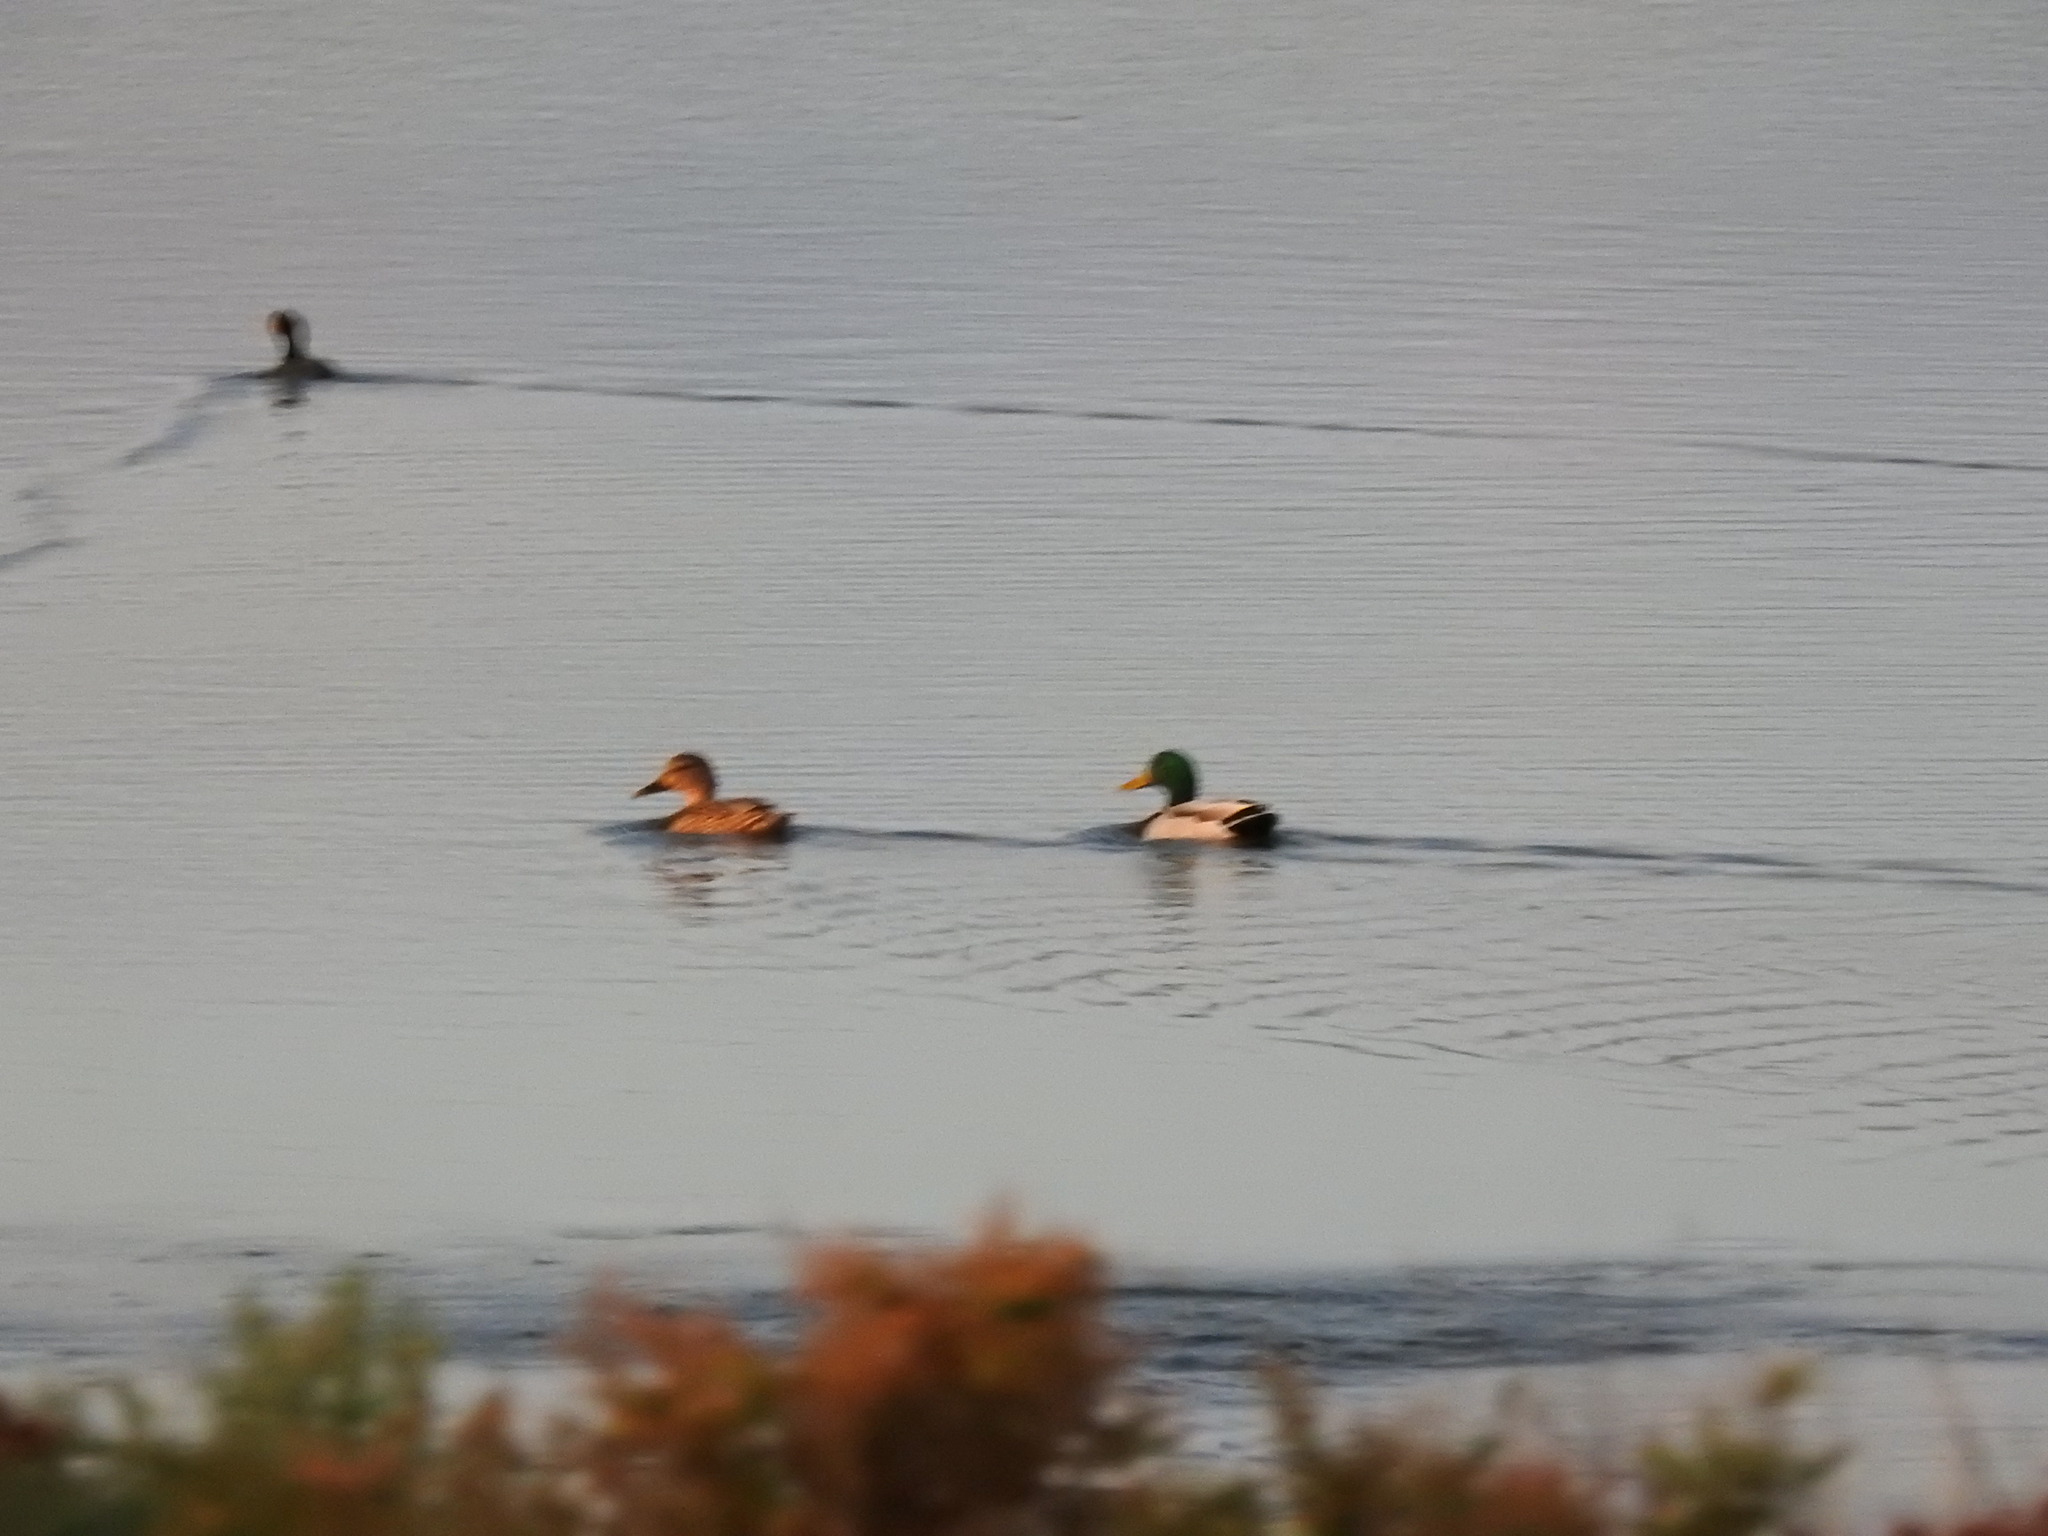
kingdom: Animalia
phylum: Chordata
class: Aves
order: Anseriformes
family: Anatidae
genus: Anas
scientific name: Anas platyrhynchos
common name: Mallard
